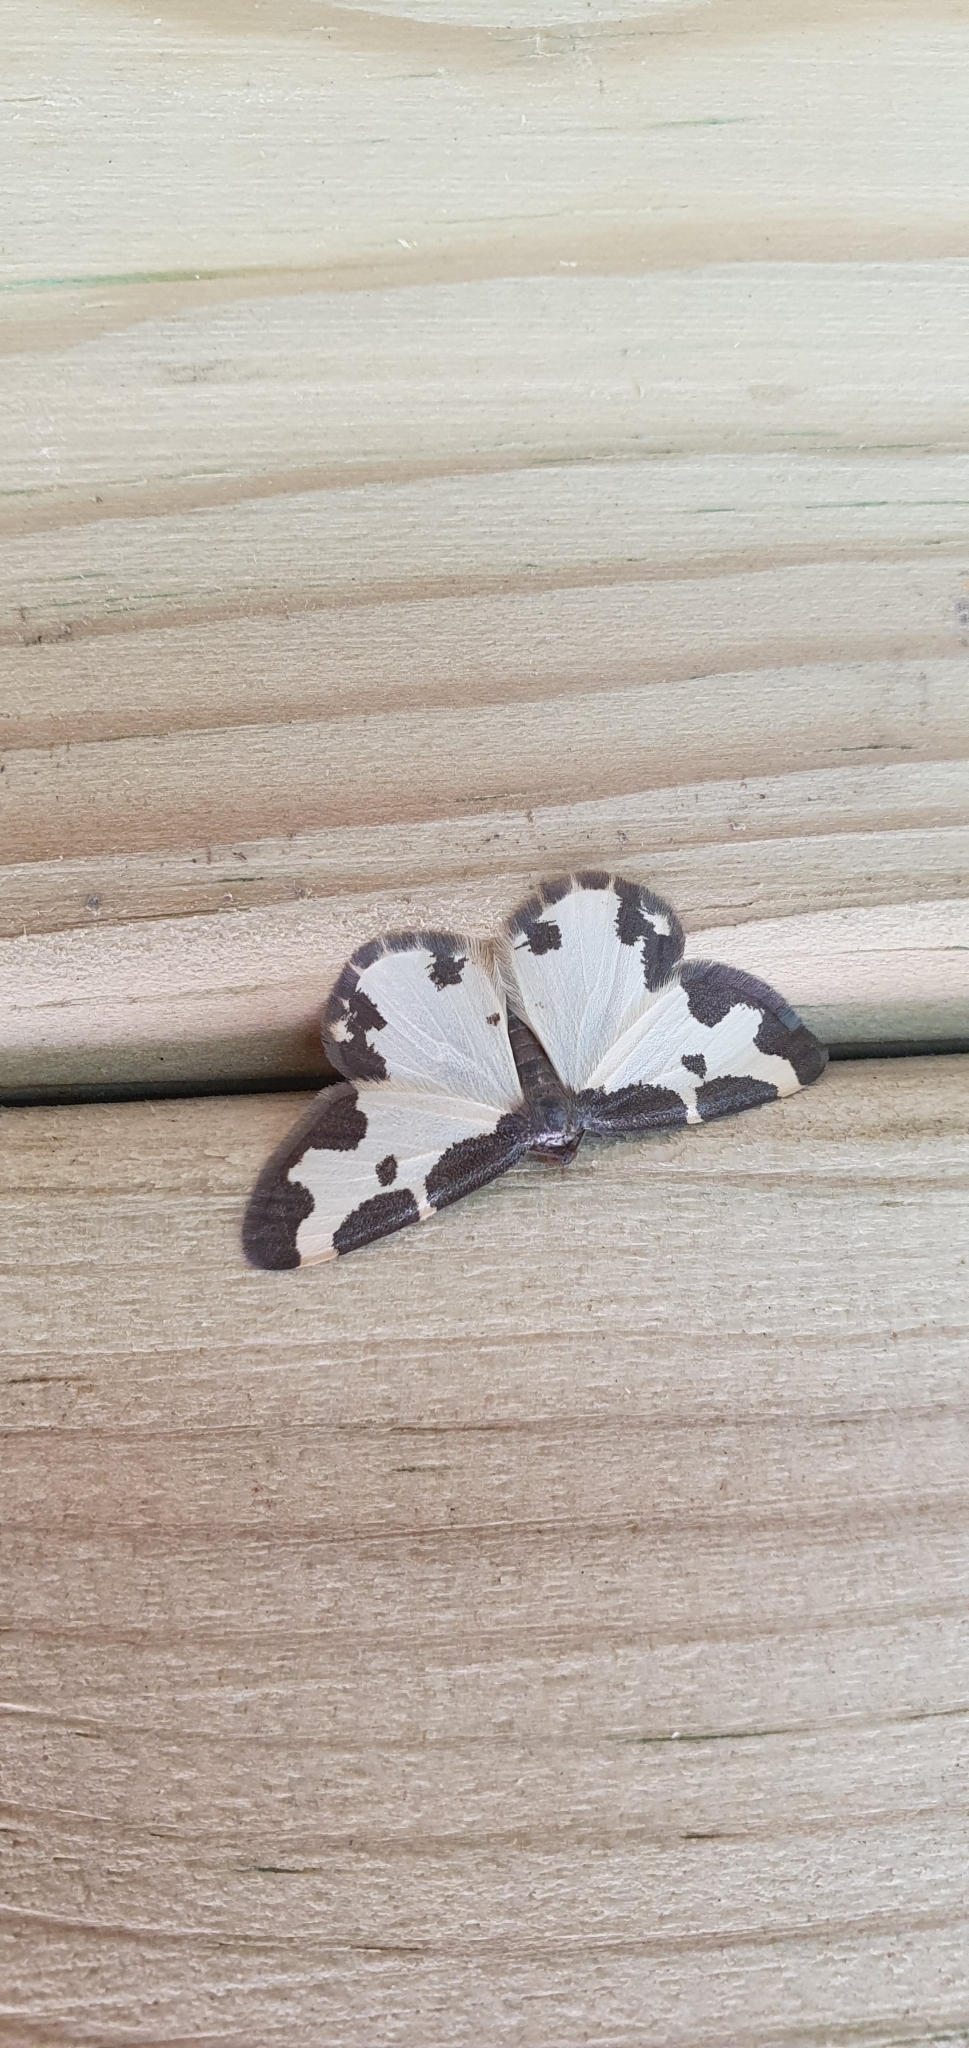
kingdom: Animalia
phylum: Arthropoda
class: Insecta
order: Lepidoptera
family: Geometridae
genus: Lomaspilis
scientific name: Lomaspilis marginata
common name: Clouded border
